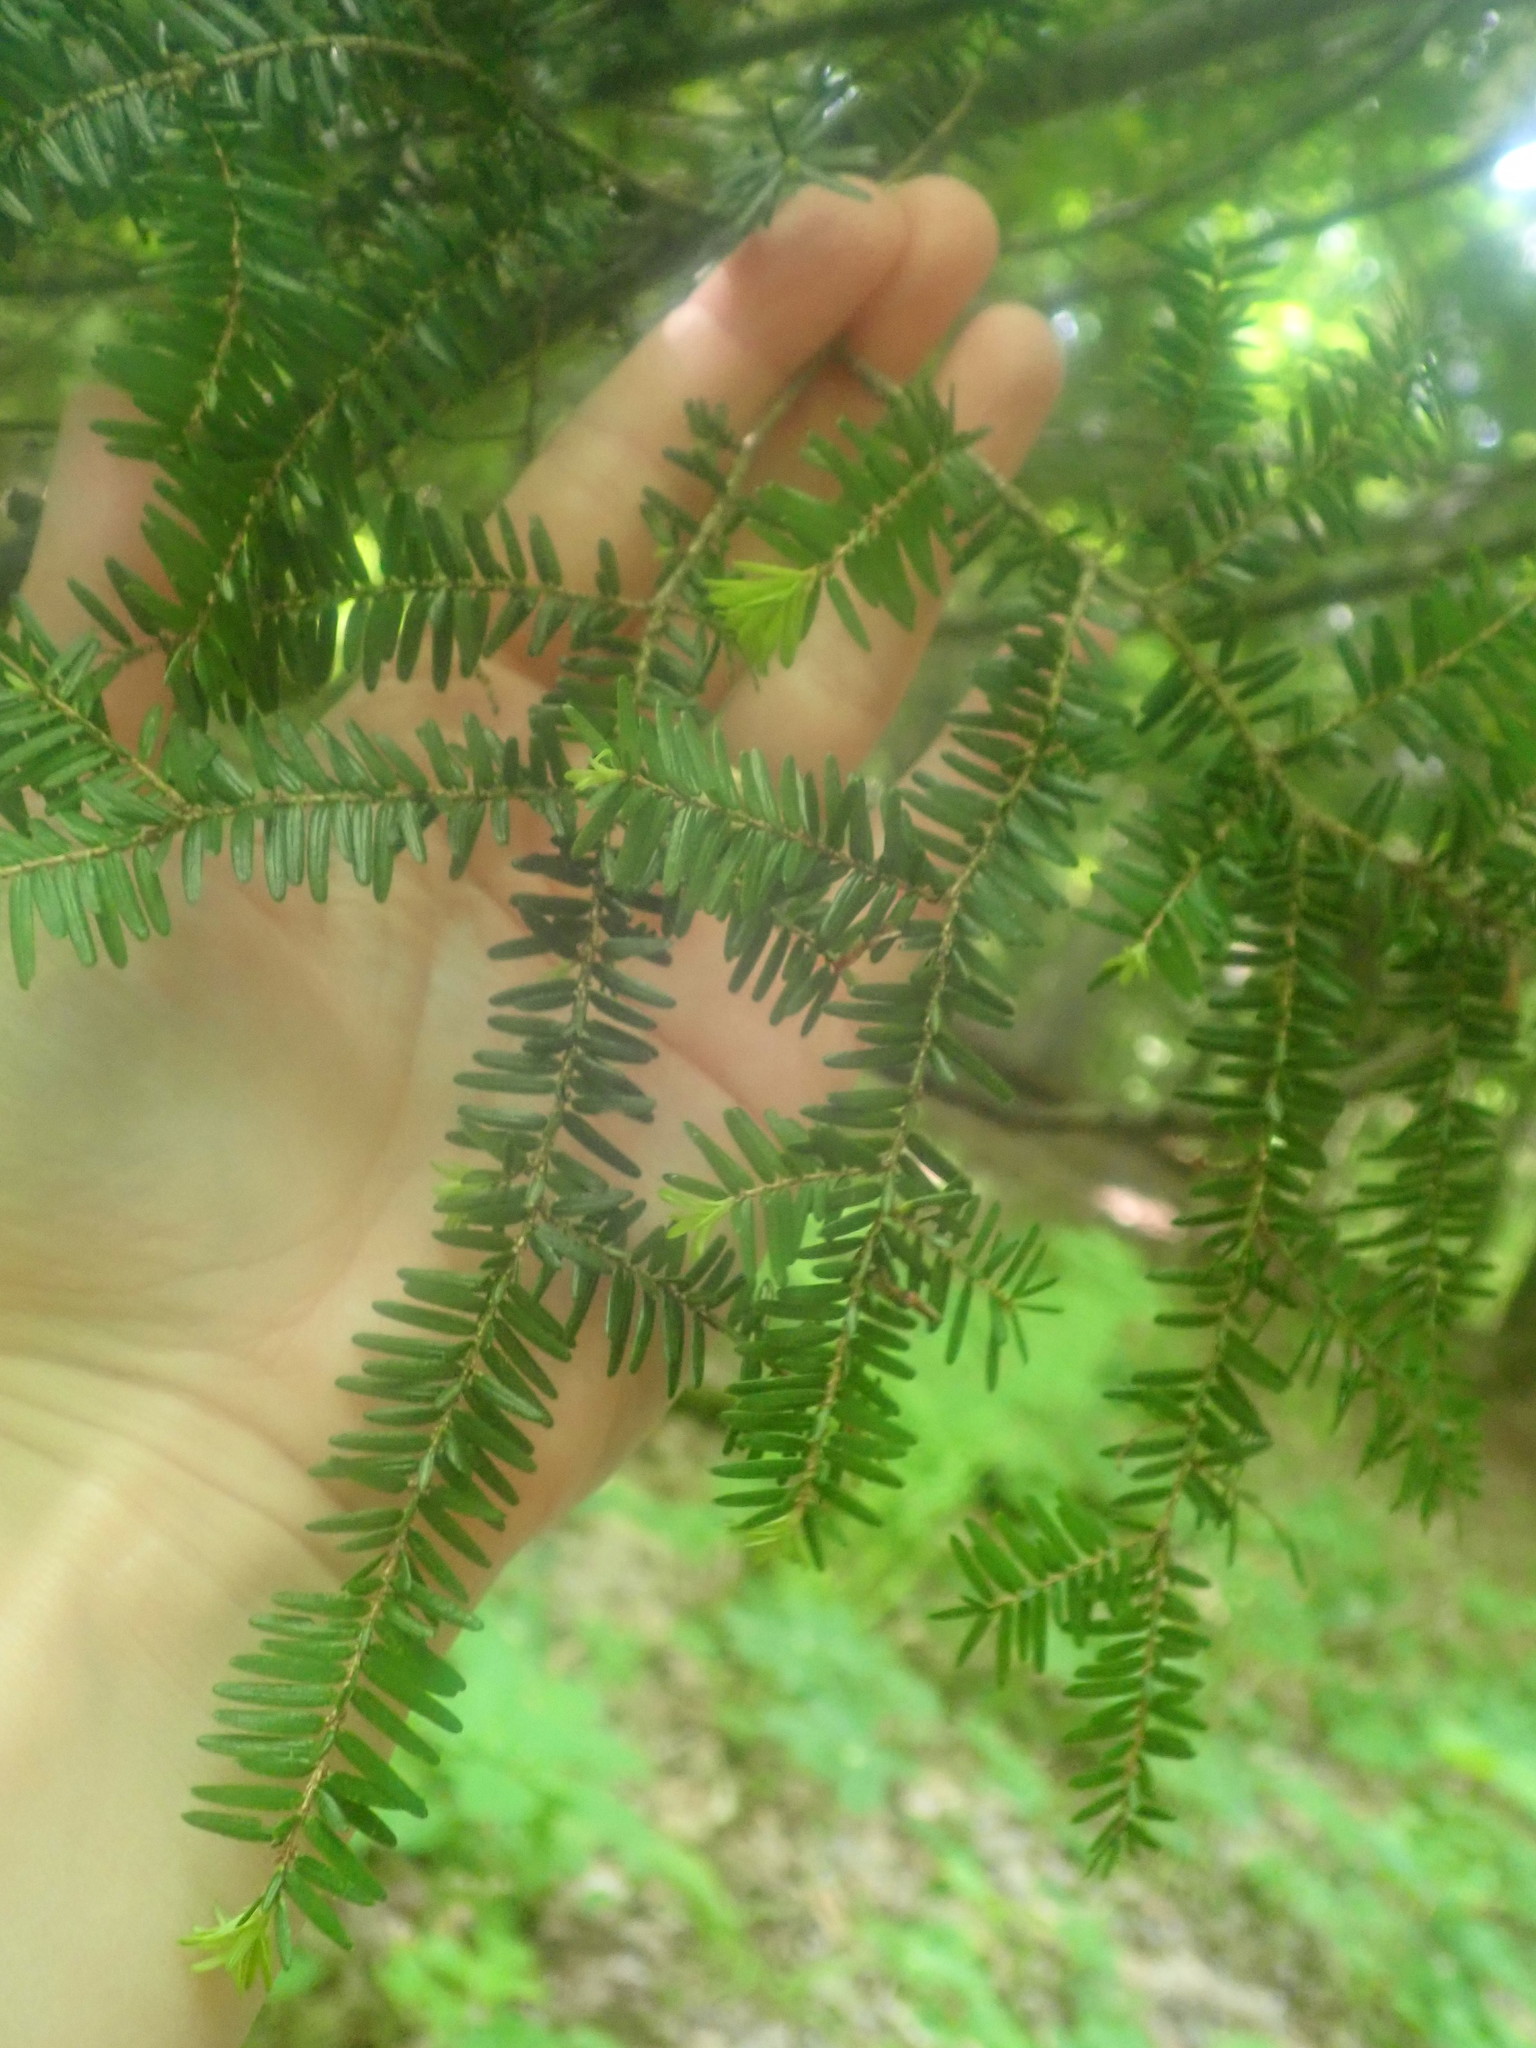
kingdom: Plantae
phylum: Tracheophyta
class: Pinopsida
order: Pinales
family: Pinaceae
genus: Tsuga
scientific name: Tsuga canadensis
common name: Eastern hemlock
